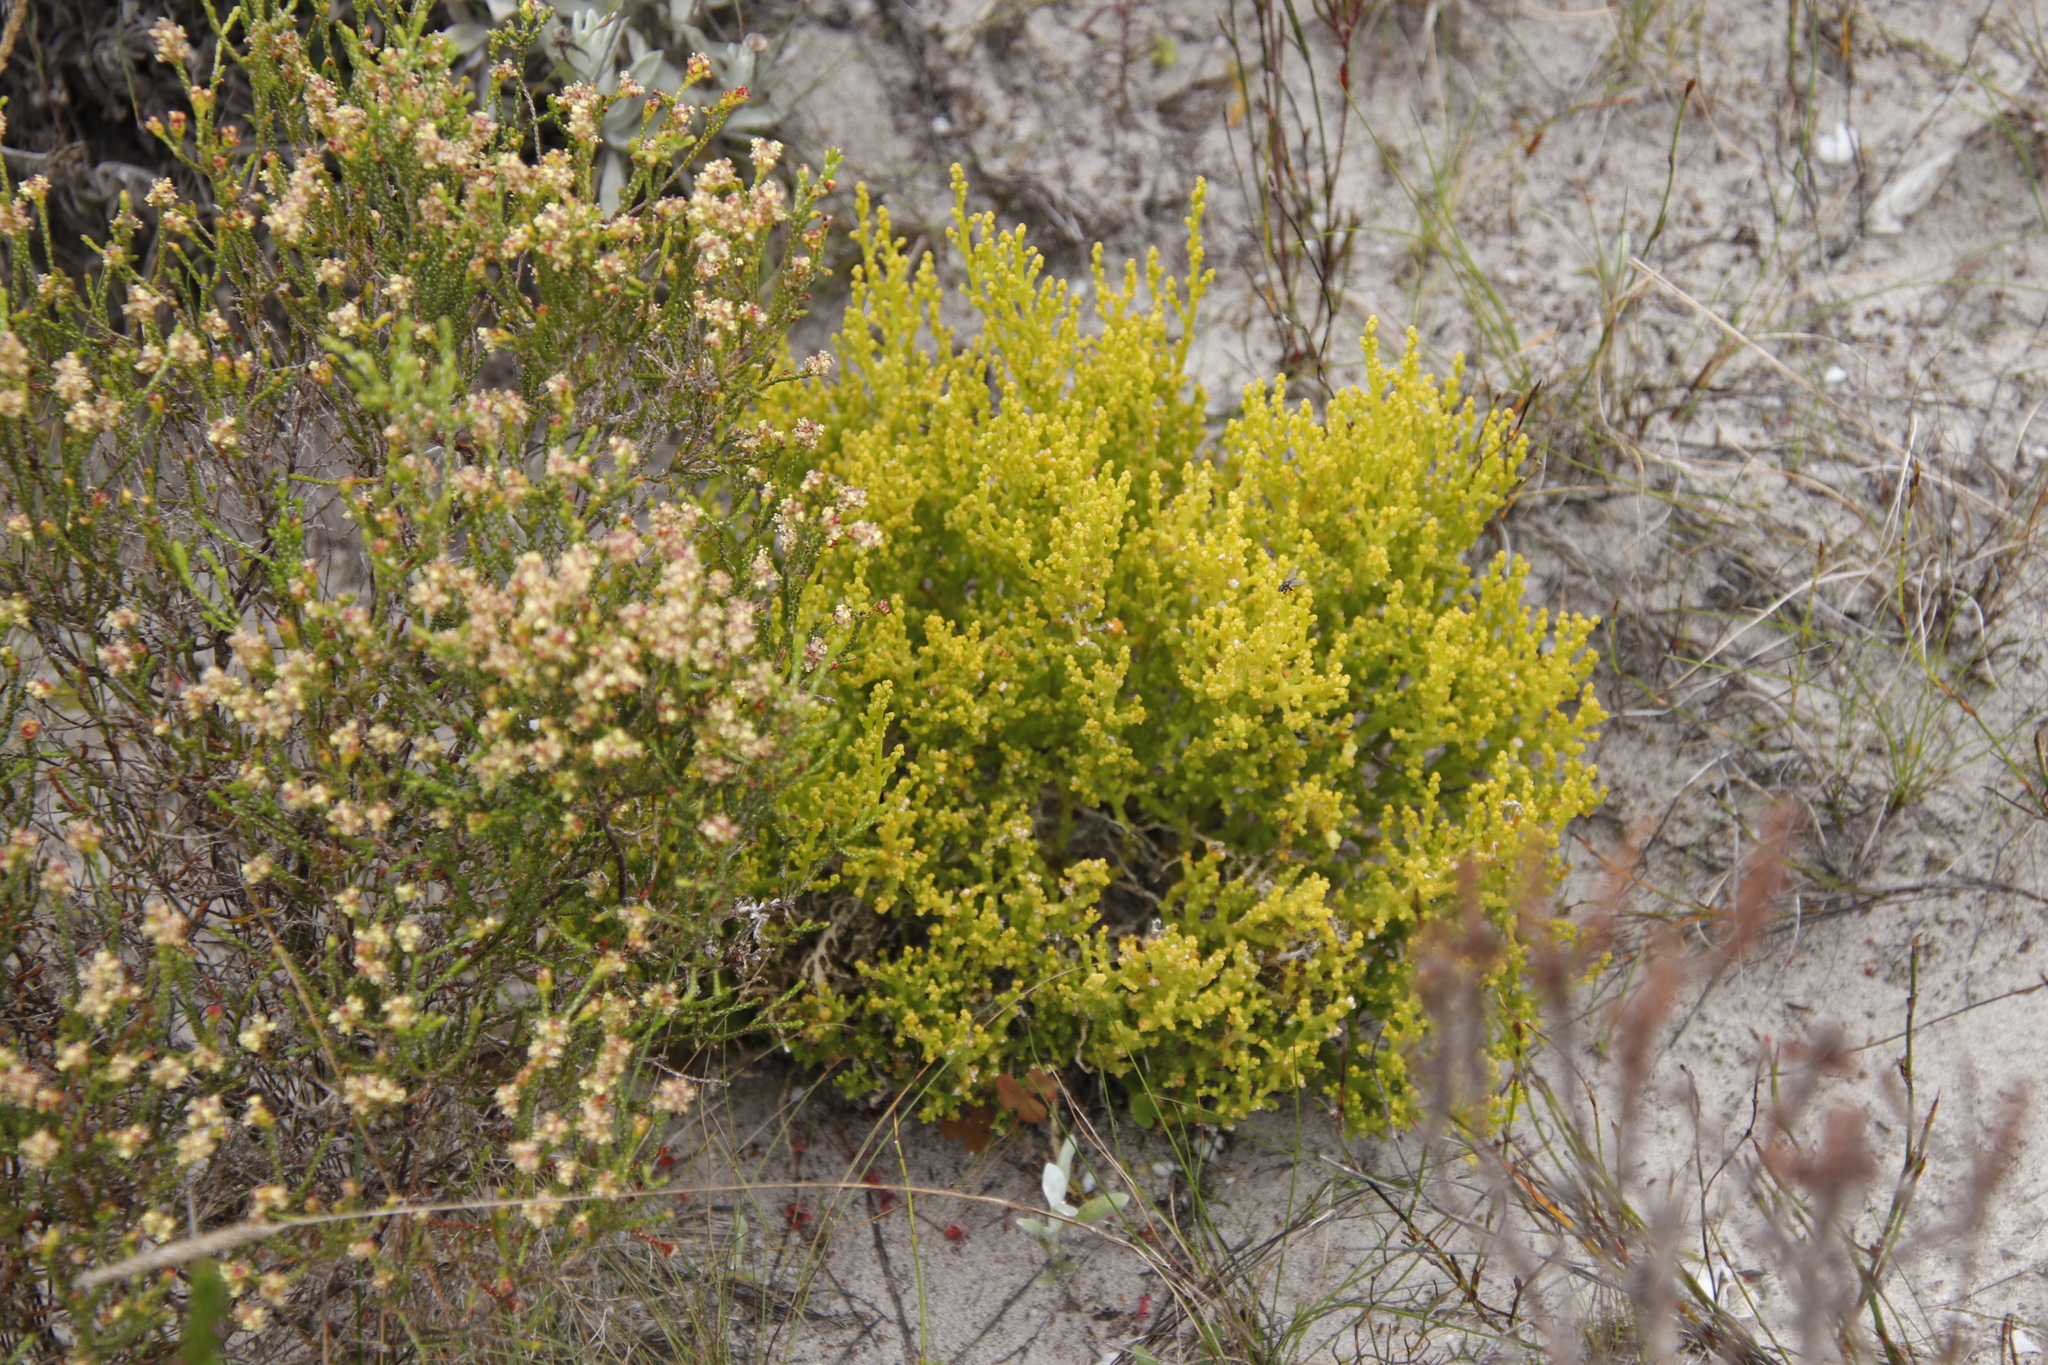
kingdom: Plantae
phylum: Tracheophyta
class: Magnoliopsida
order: Santalales
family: Thesiaceae
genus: Thesium
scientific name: Thesium fragile
